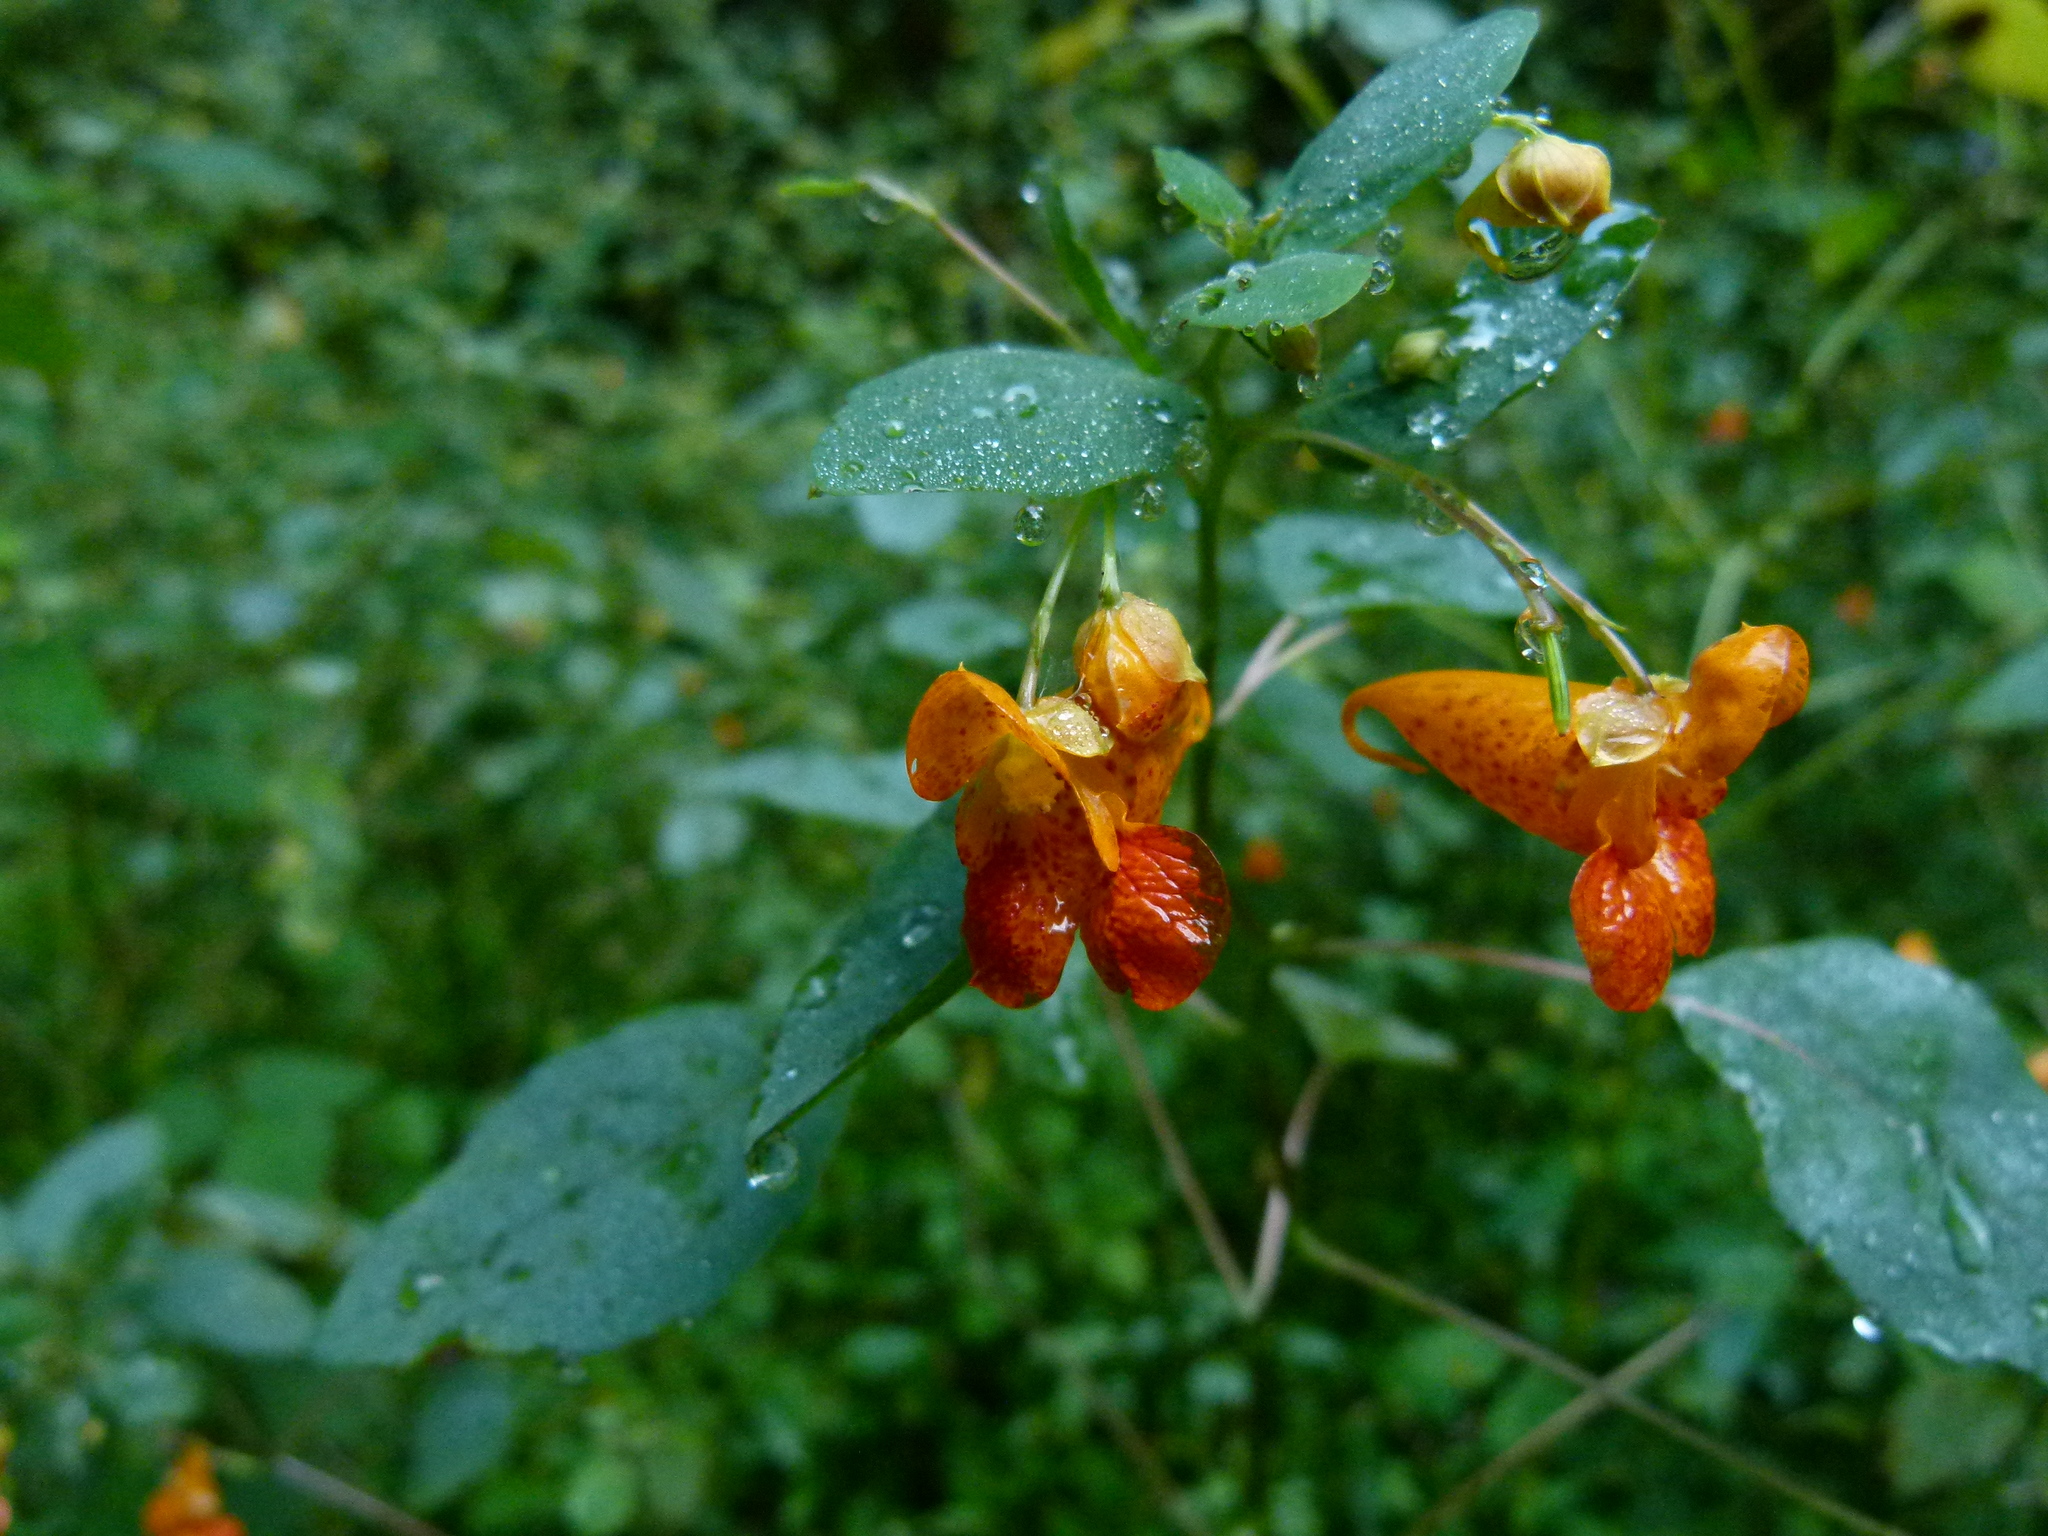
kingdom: Plantae
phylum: Tracheophyta
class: Magnoliopsida
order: Ericales
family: Balsaminaceae
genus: Impatiens
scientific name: Impatiens capensis
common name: Orange balsam
